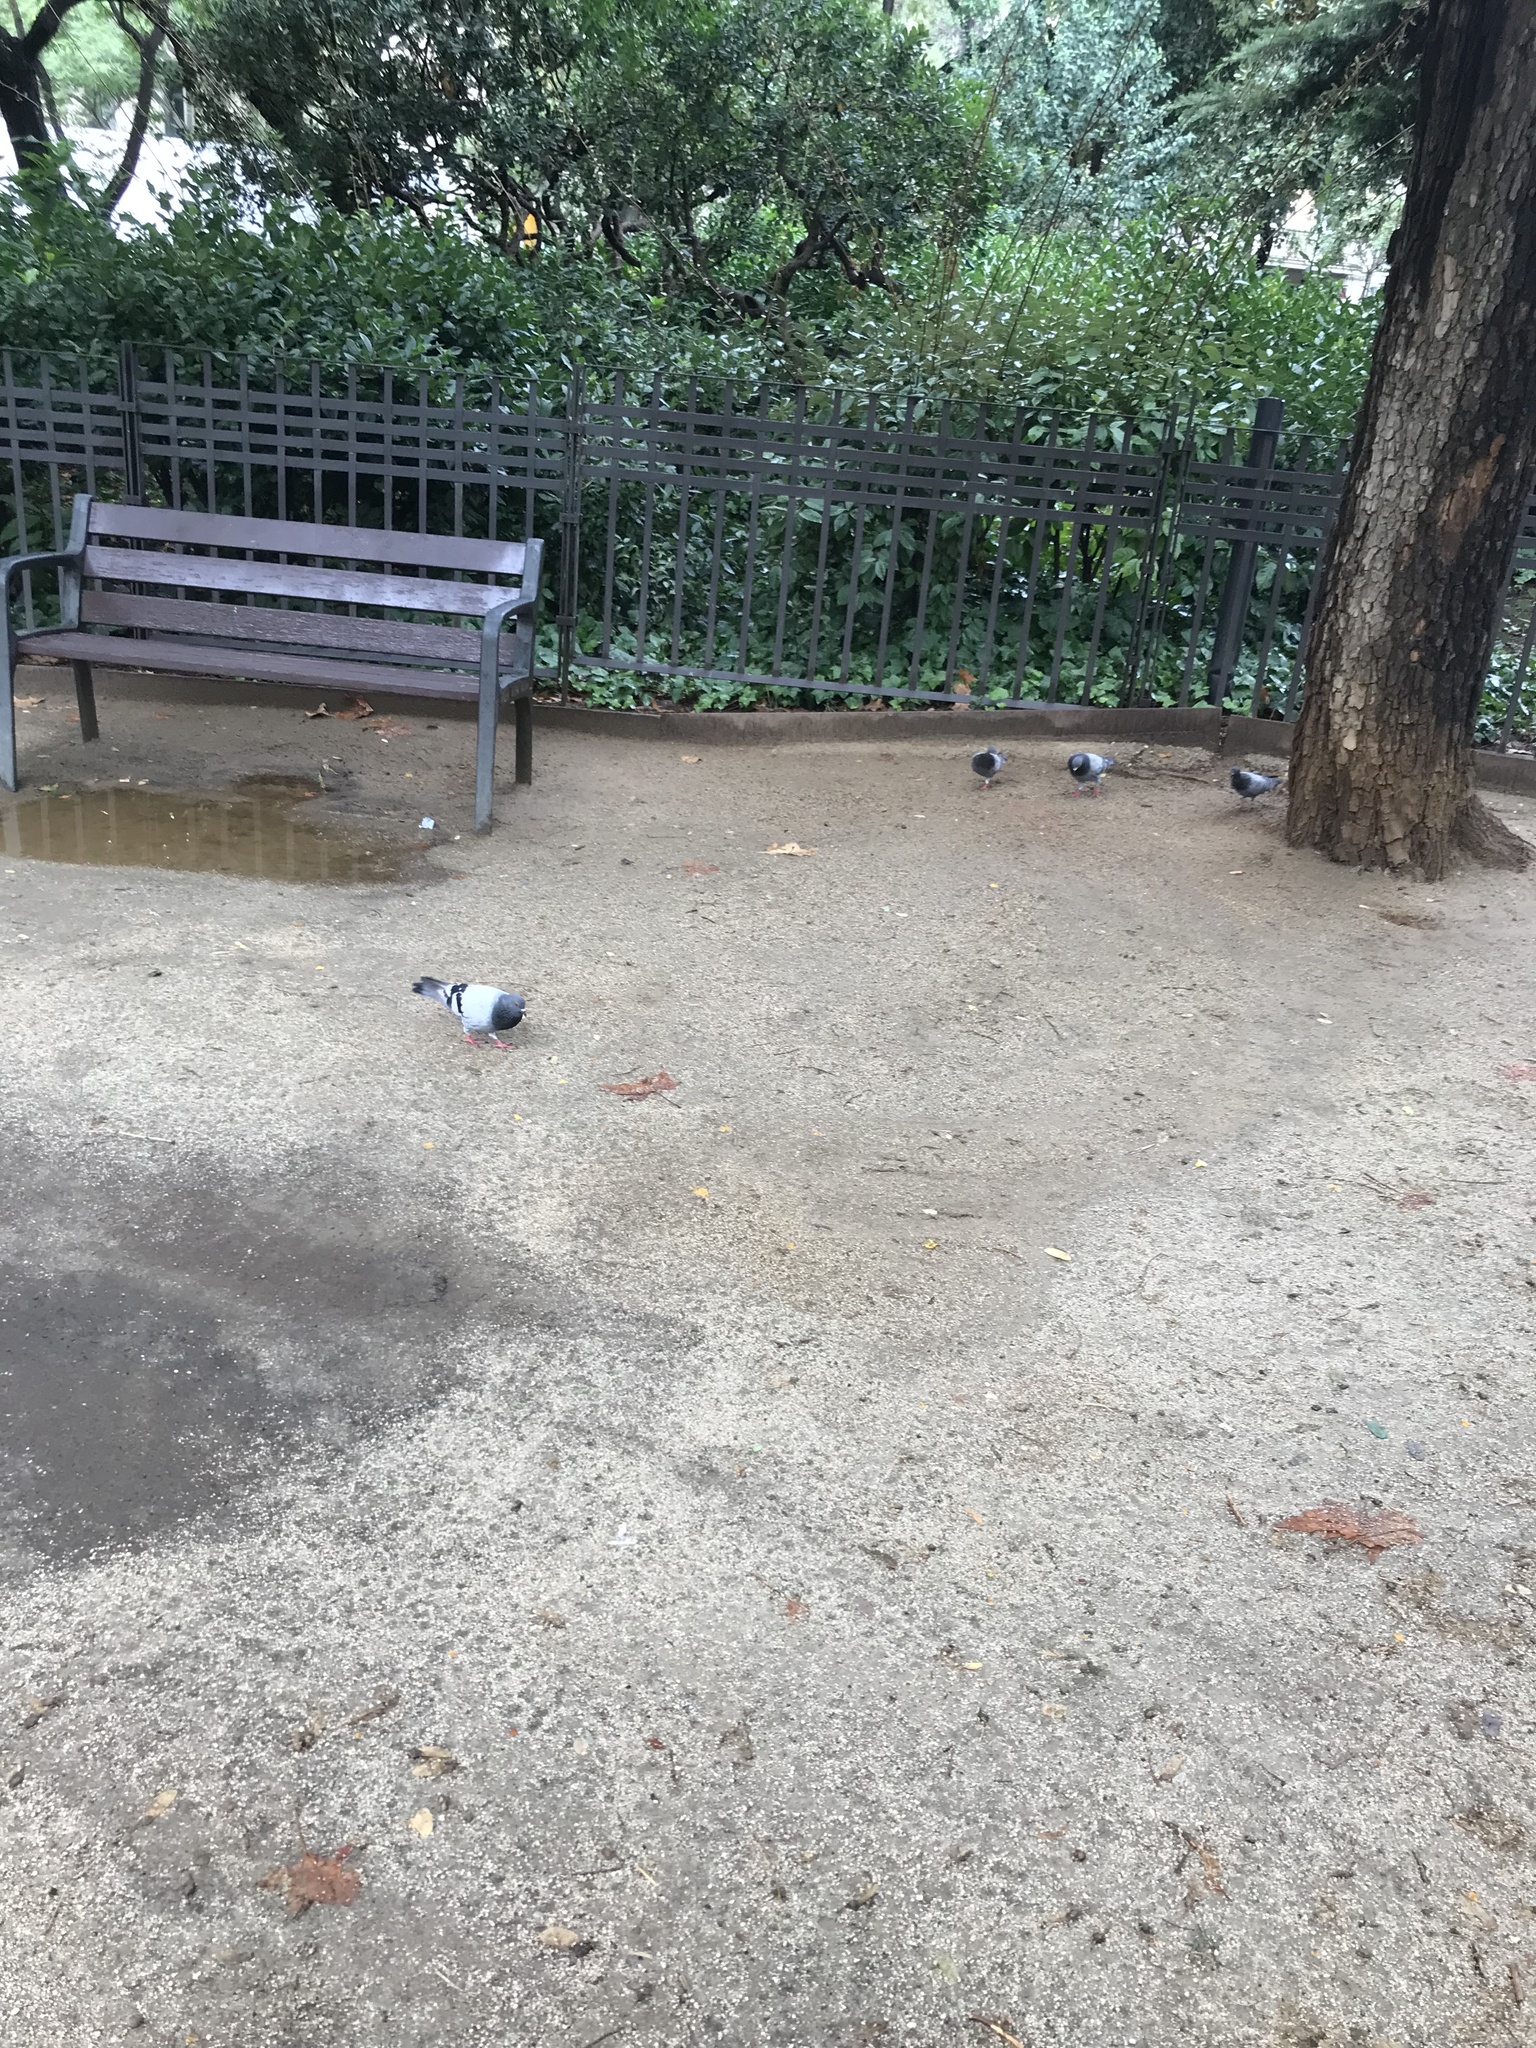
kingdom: Animalia
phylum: Chordata
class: Aves
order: Columbiformes
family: Columbidae
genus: Columba
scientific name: Columba livia
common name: Rock pigeon
